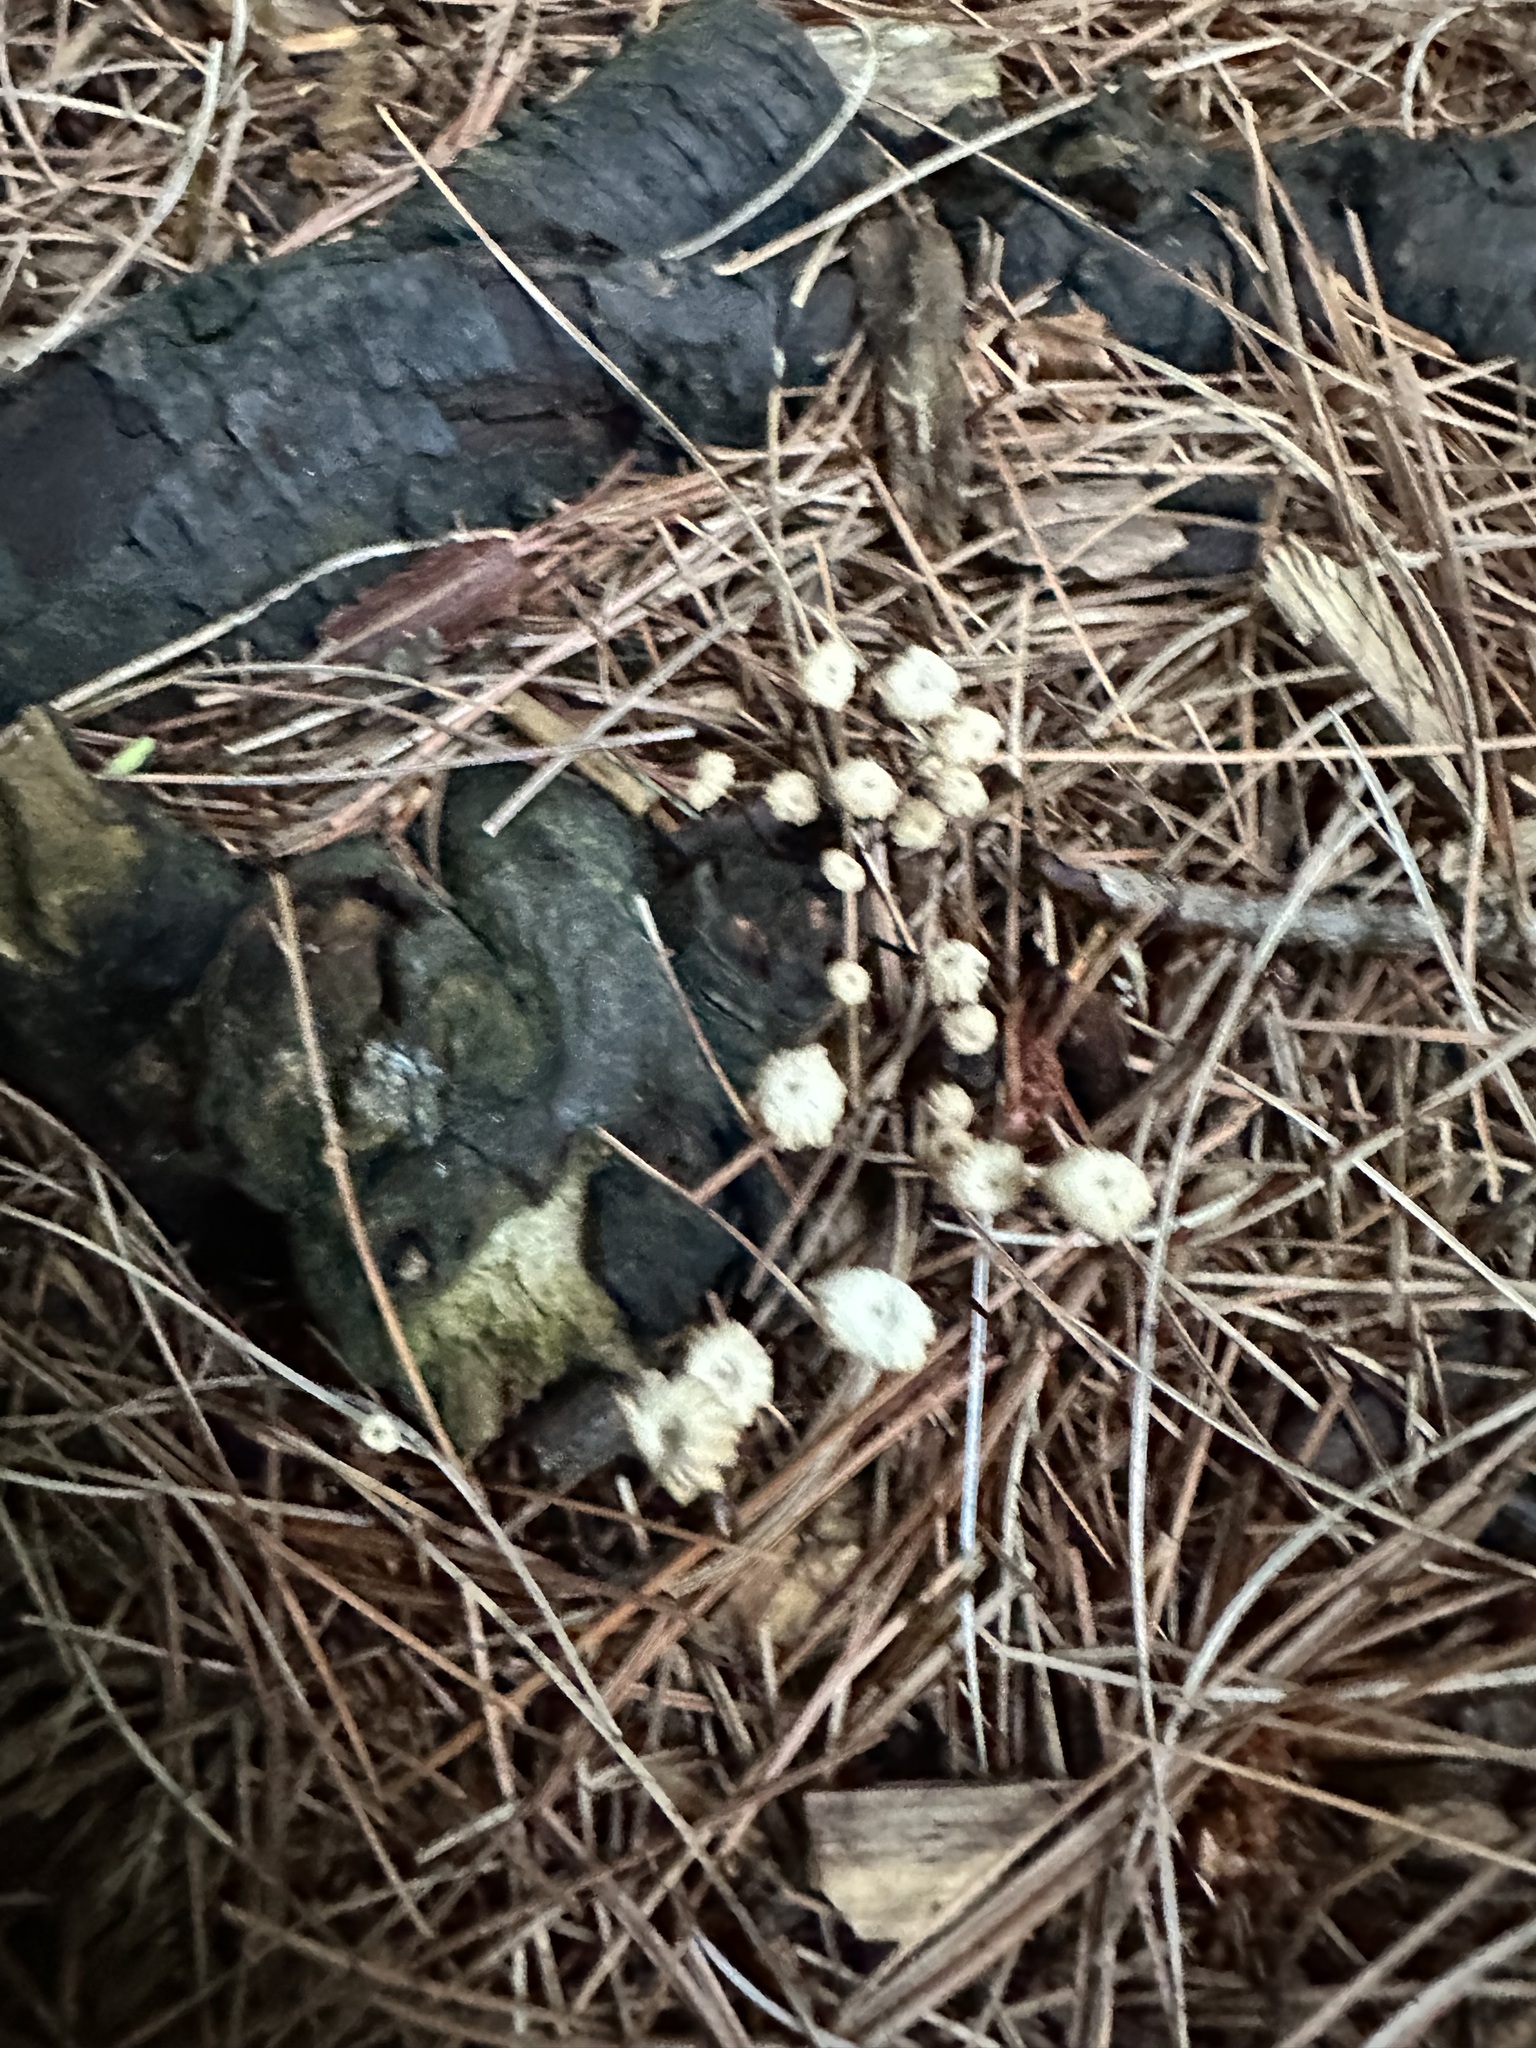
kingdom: Fungi
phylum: Basidiomycota
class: Agaricomycetes
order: Agaricales
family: Marasmiaceae
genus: Marasmius
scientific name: Marasmius capillaris
